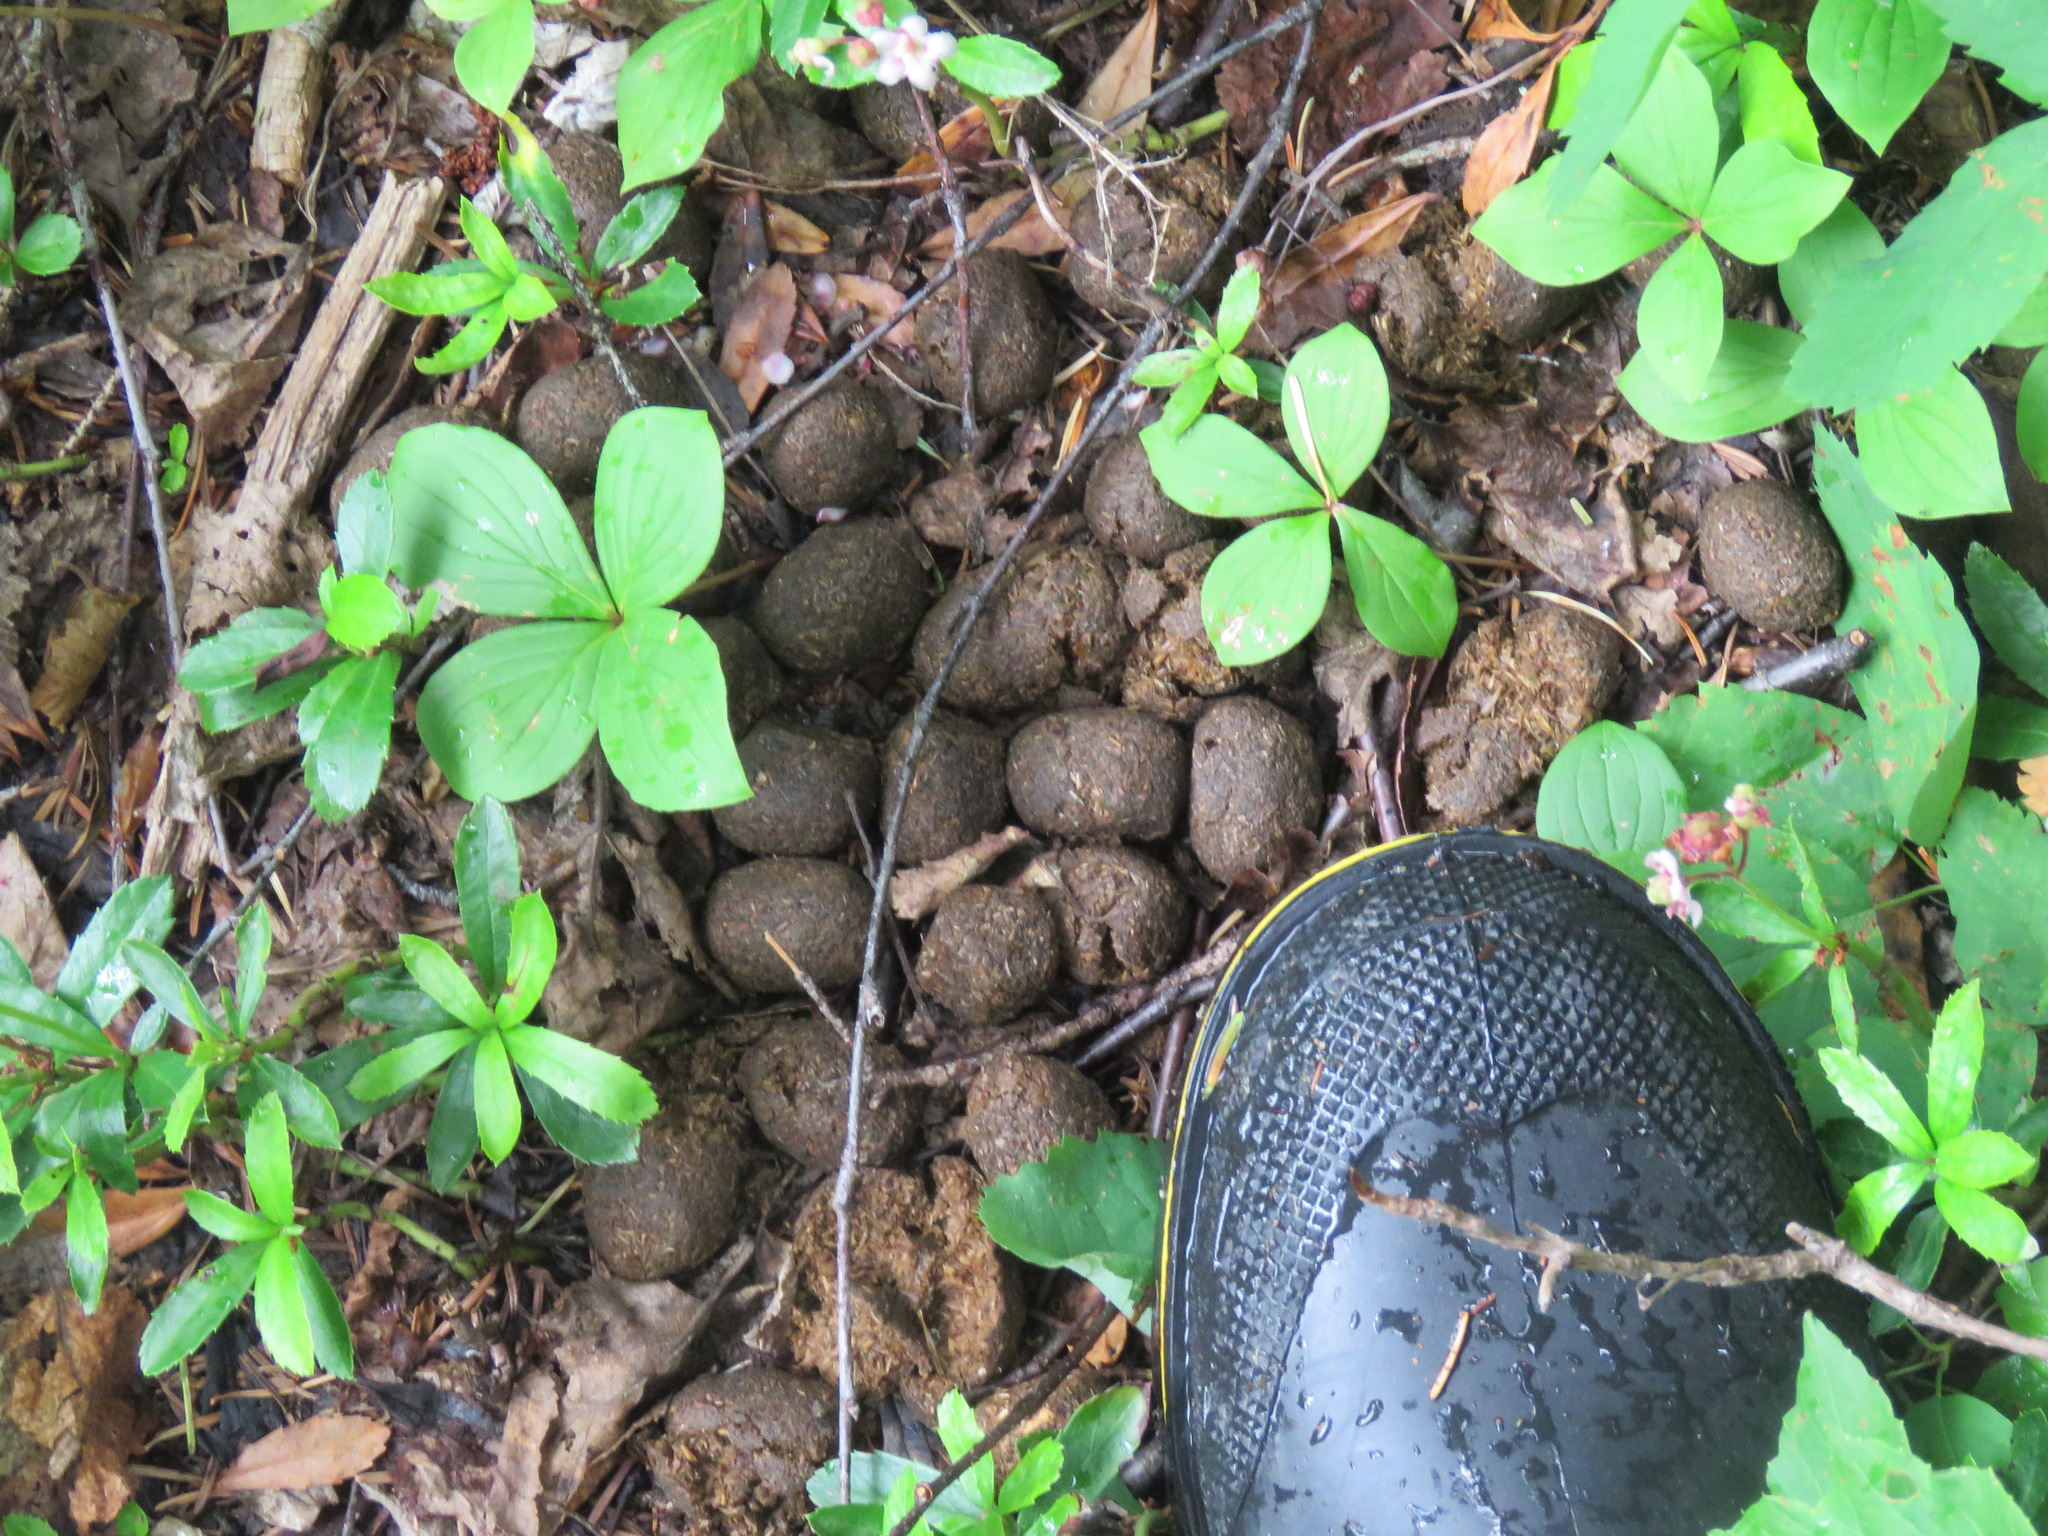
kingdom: Animalia
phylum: Chordata
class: Mammalia
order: Artiodactyla
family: Cervidae
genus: Alces
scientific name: Alces alces
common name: Moose
